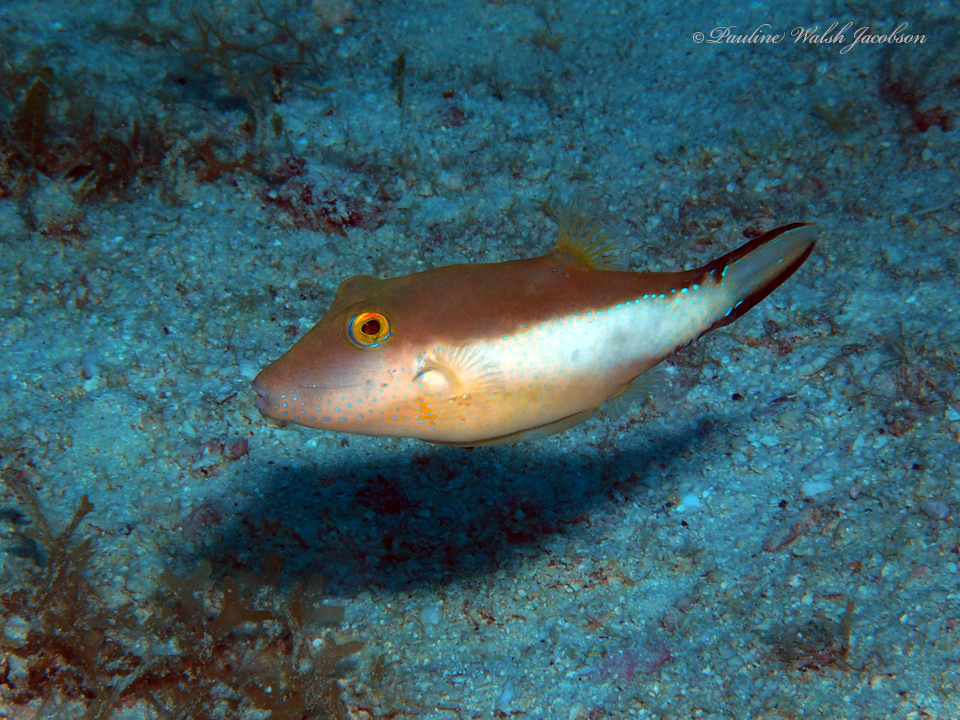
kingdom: Animalia
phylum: Chordata
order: Tetraodontiformes
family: Tetraodontidae
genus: Canthigaster
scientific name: Canthigaster rostrata
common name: Caribbean sharpnose-puffer
